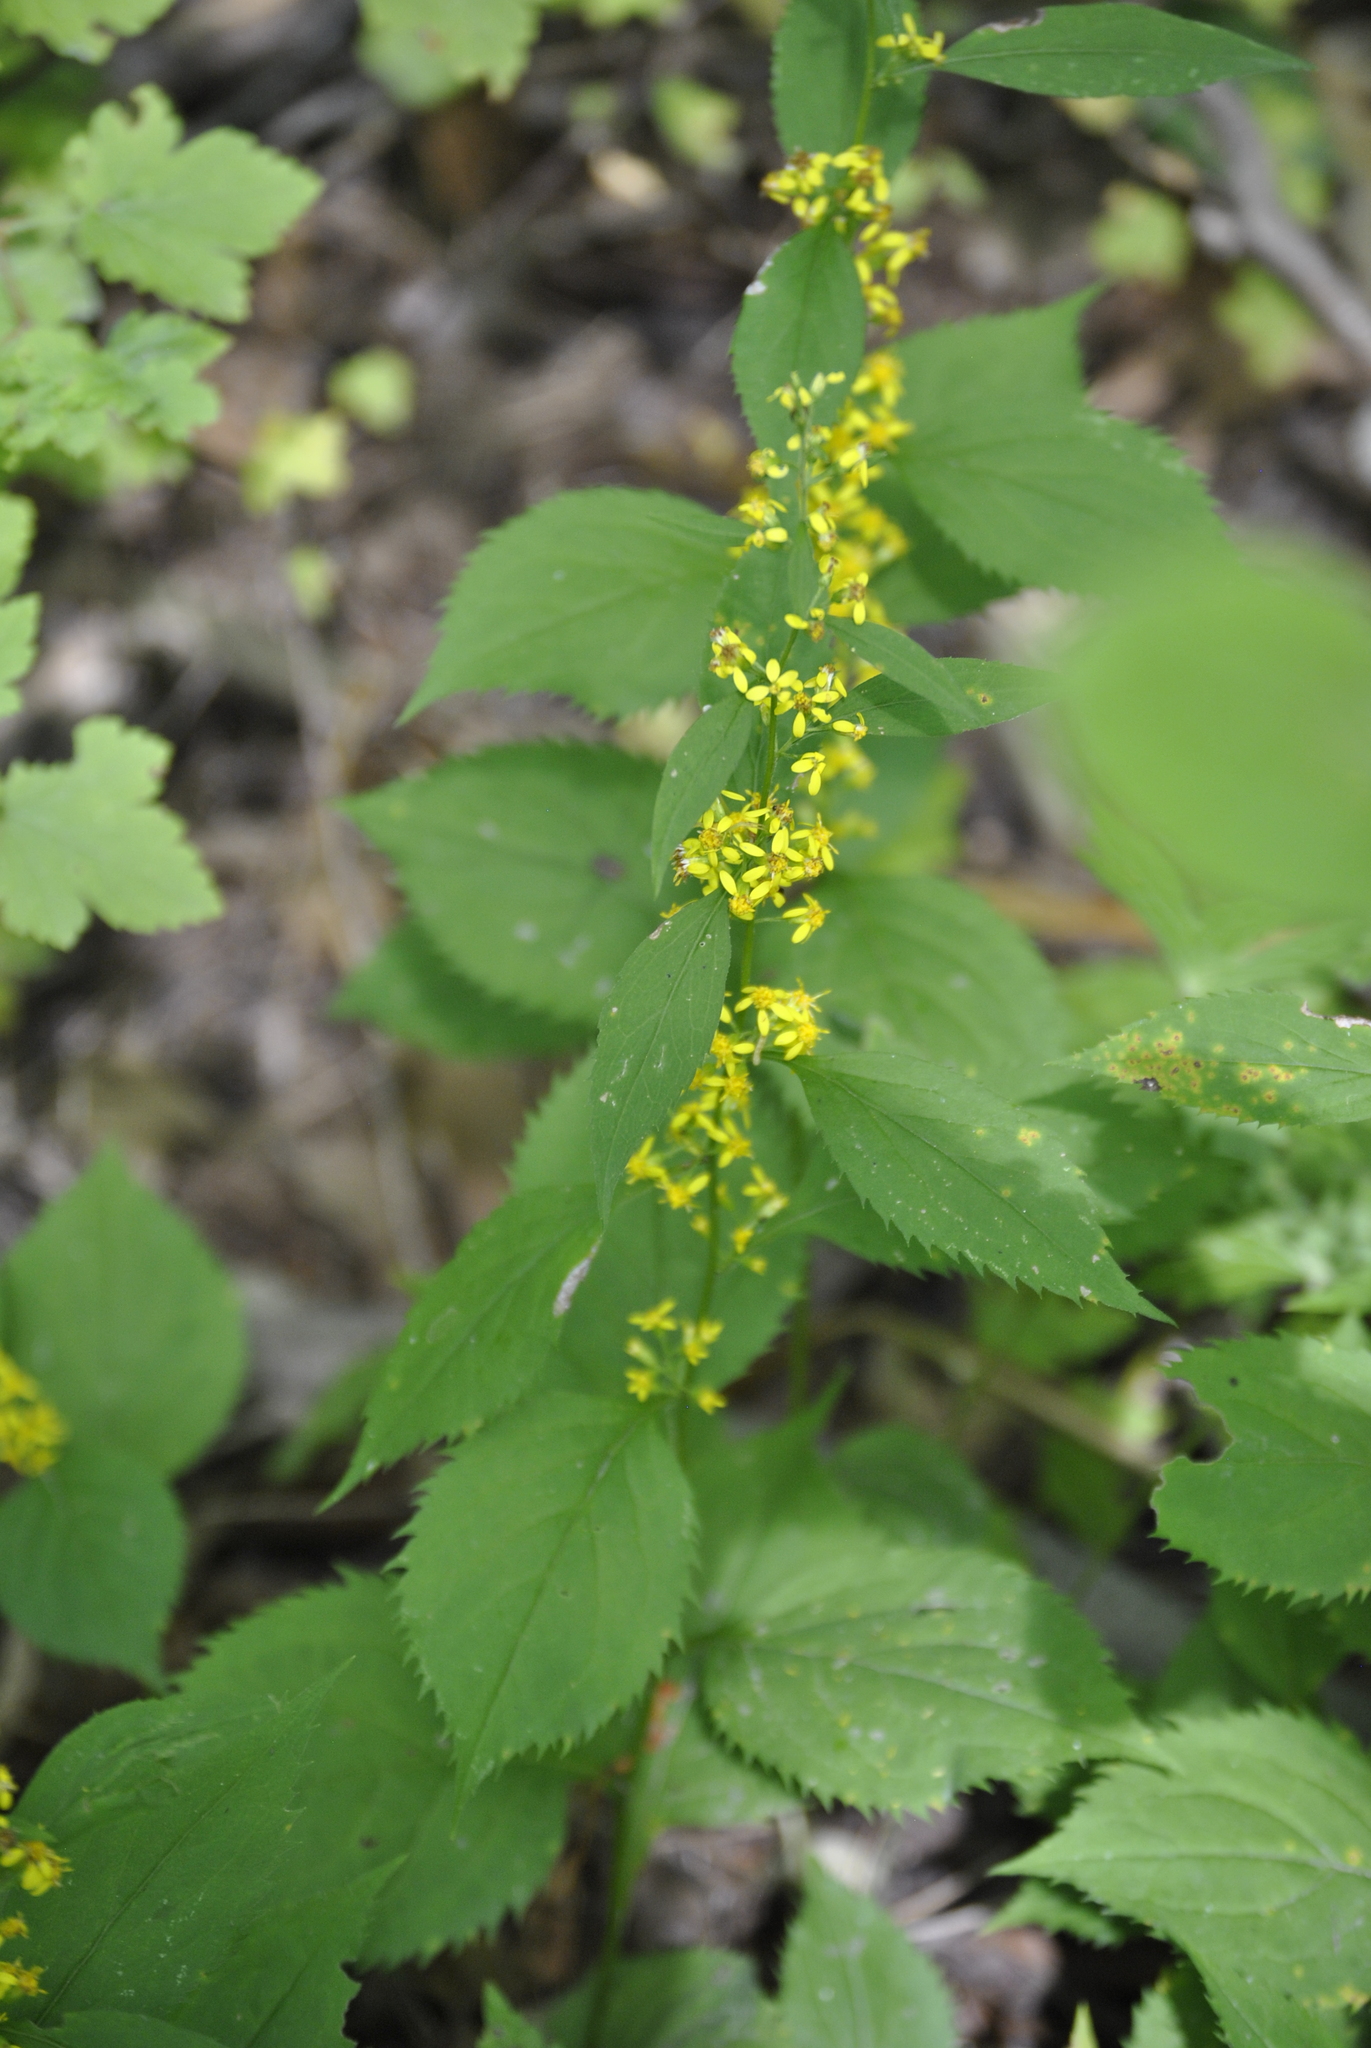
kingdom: Plantae
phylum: Tracheophyta
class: Magnoliopsida
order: Asterales
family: Asteraceae
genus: Solidago
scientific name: Solidago flexicaulis
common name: Zig-zag goldenrod
